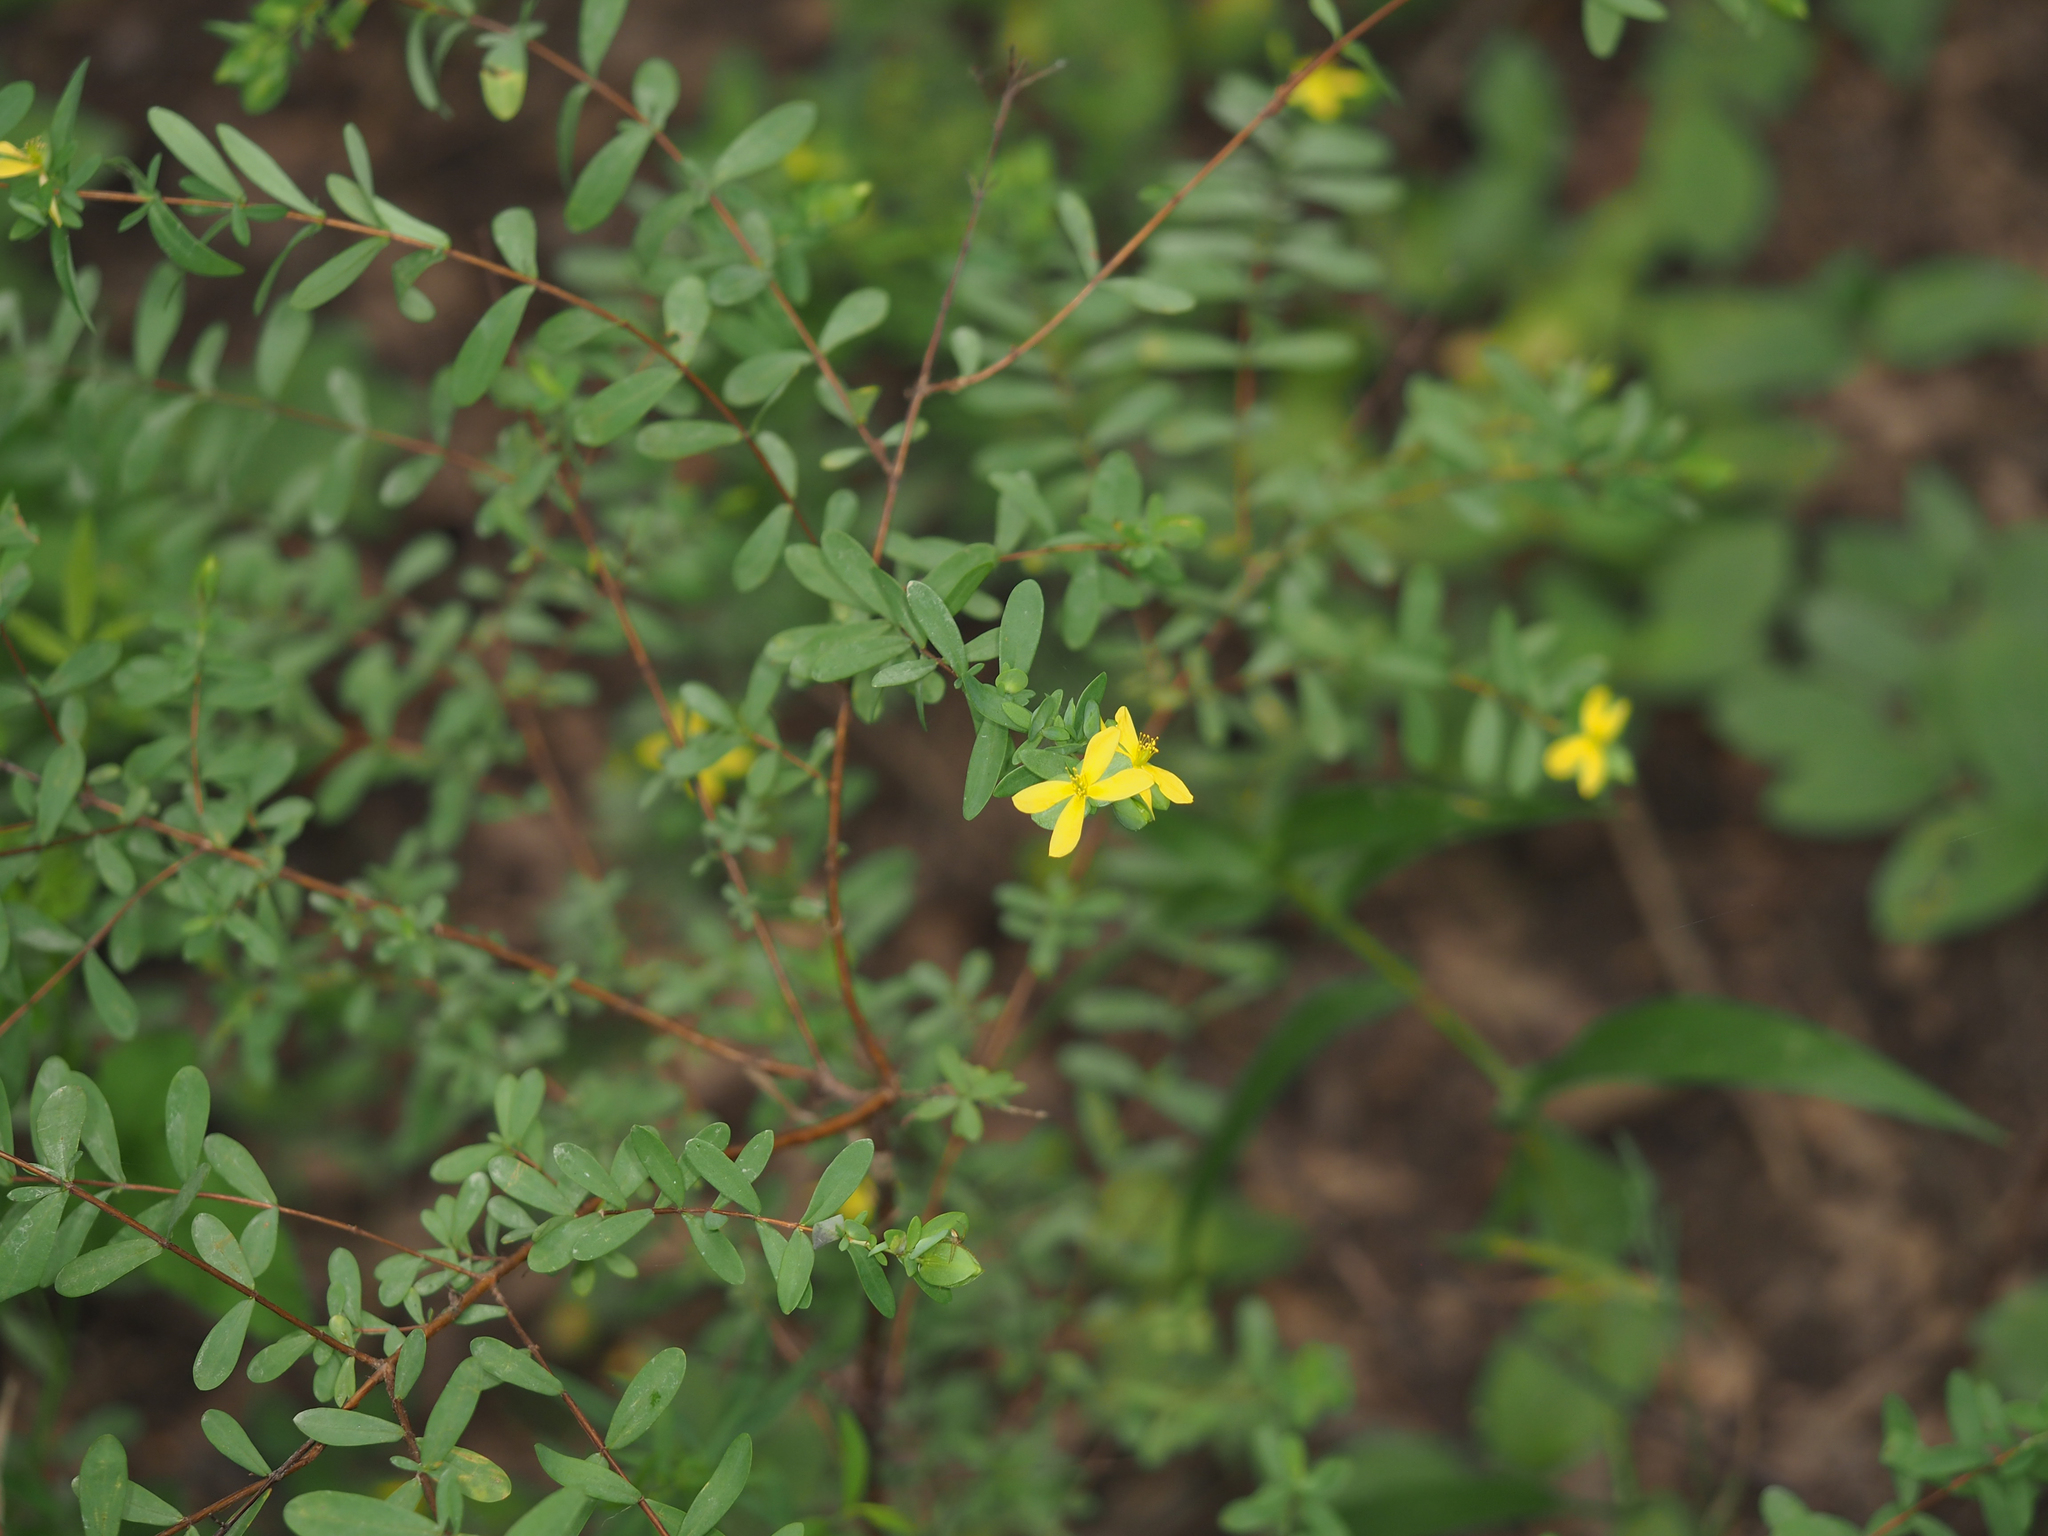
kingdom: Plantae
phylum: Tracheophyta
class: Magnoliopsida
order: Malpighiales
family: Hypericaceae
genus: Hypericum
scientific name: Hypericum hypericoides
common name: St. andrew's cross
